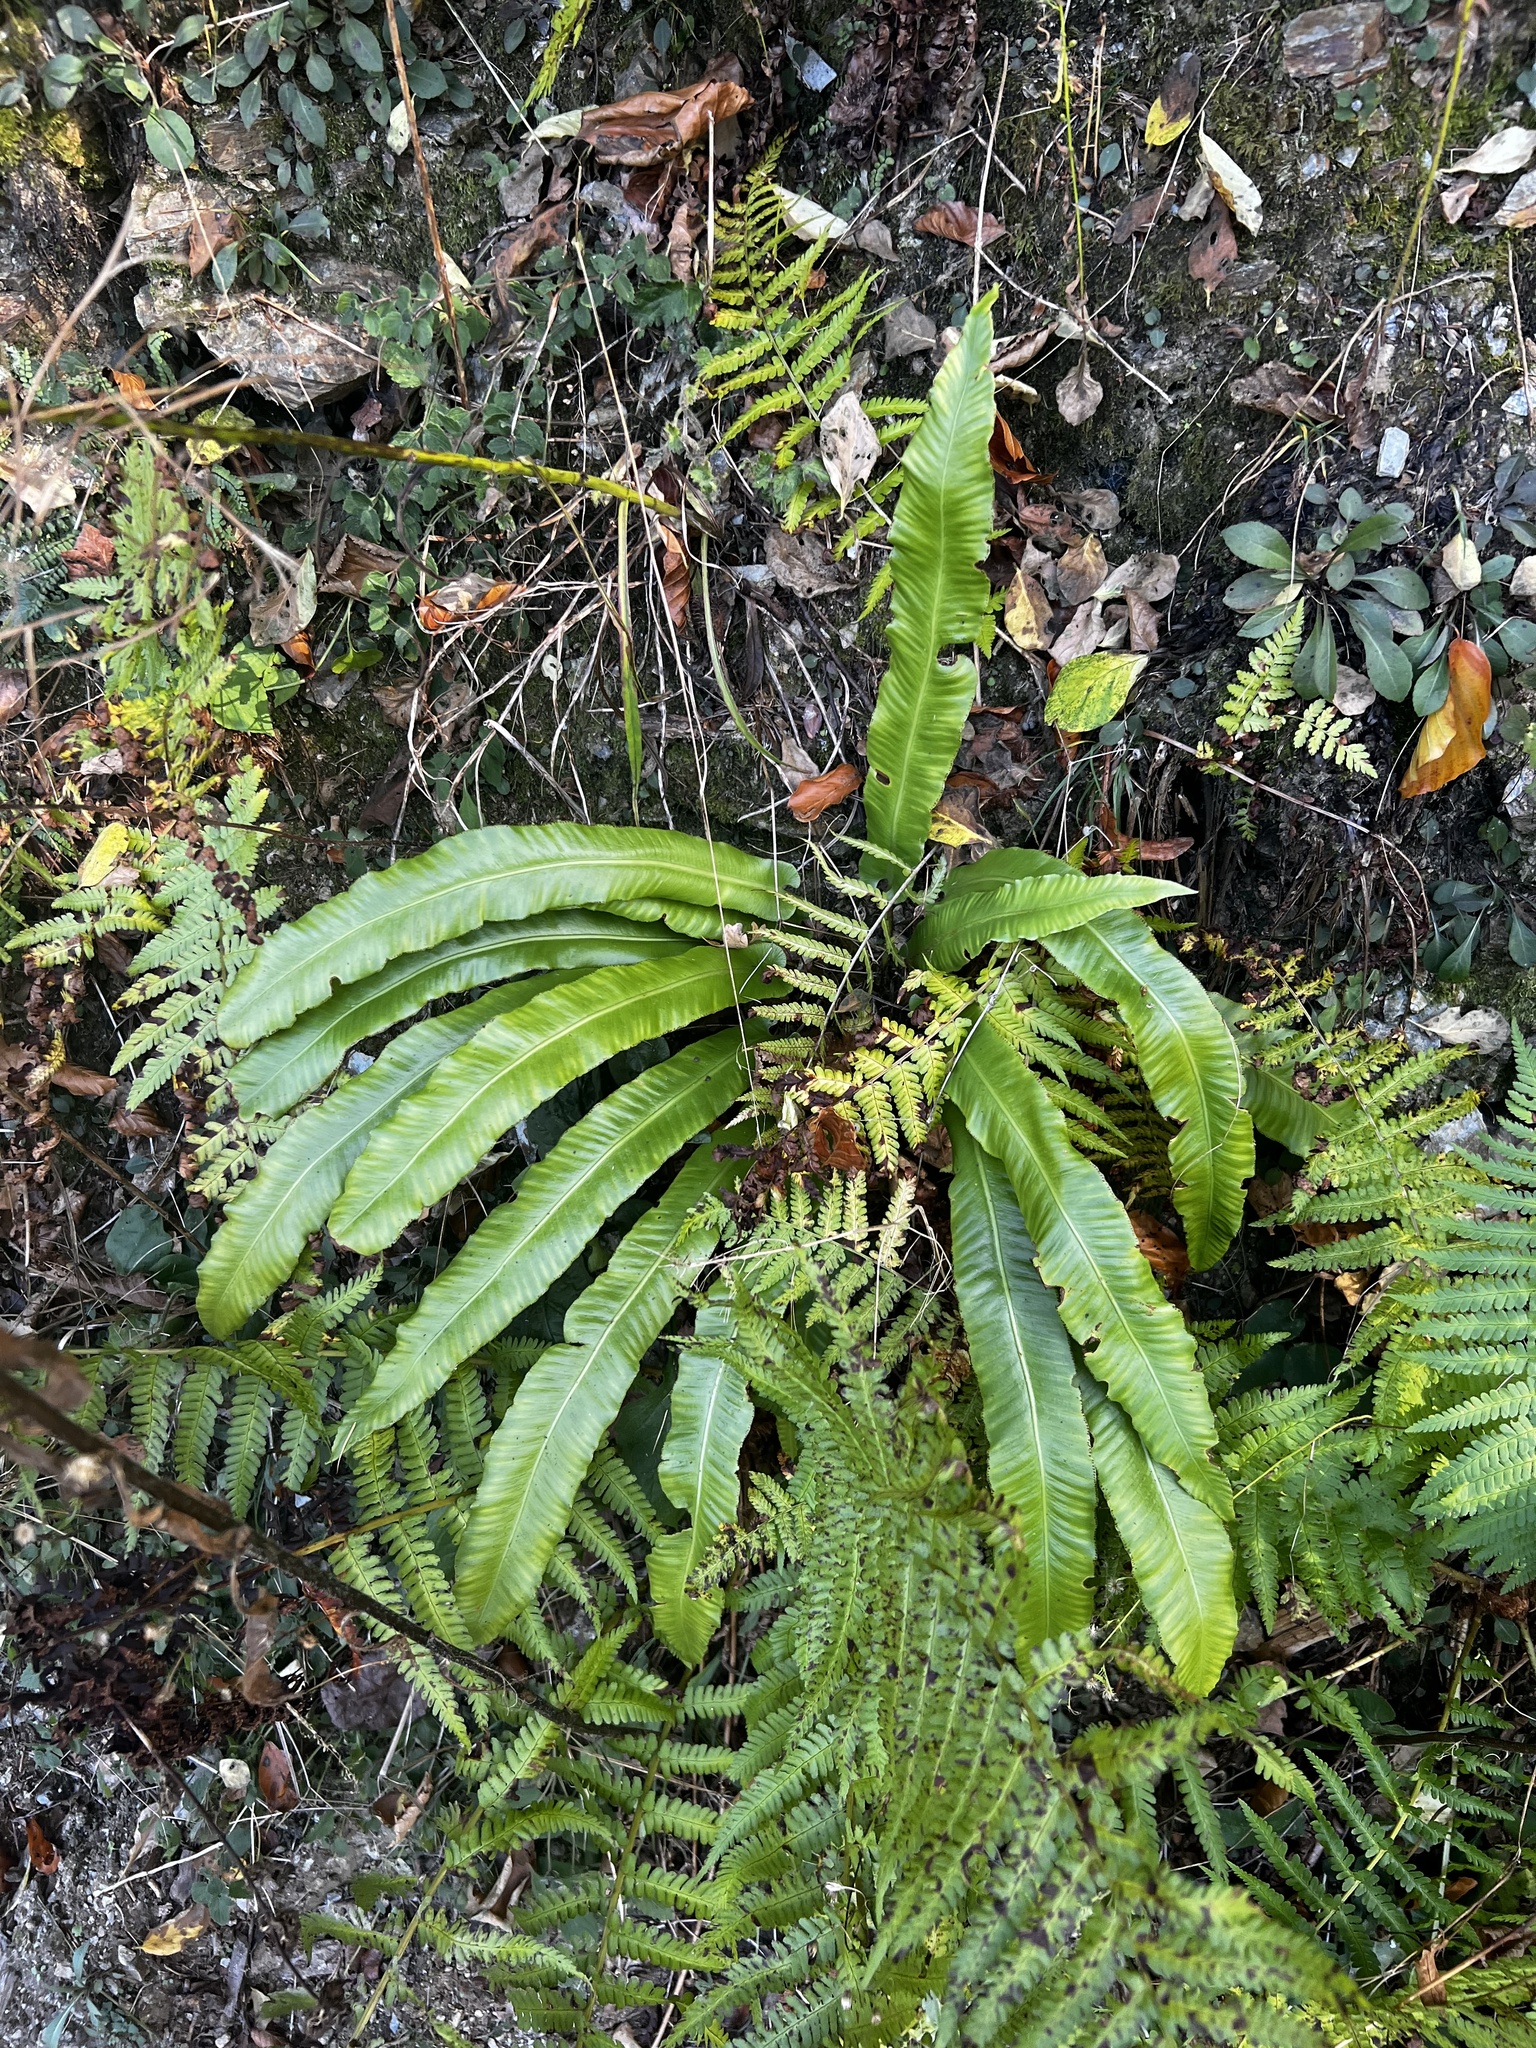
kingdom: Plantae
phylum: Tracheophyta
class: Polypodiopsida
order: Polypodiales
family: Aspleniaceae
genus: Asplenium
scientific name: Asplenium scolopendrium
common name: Hart's-tongue fern
